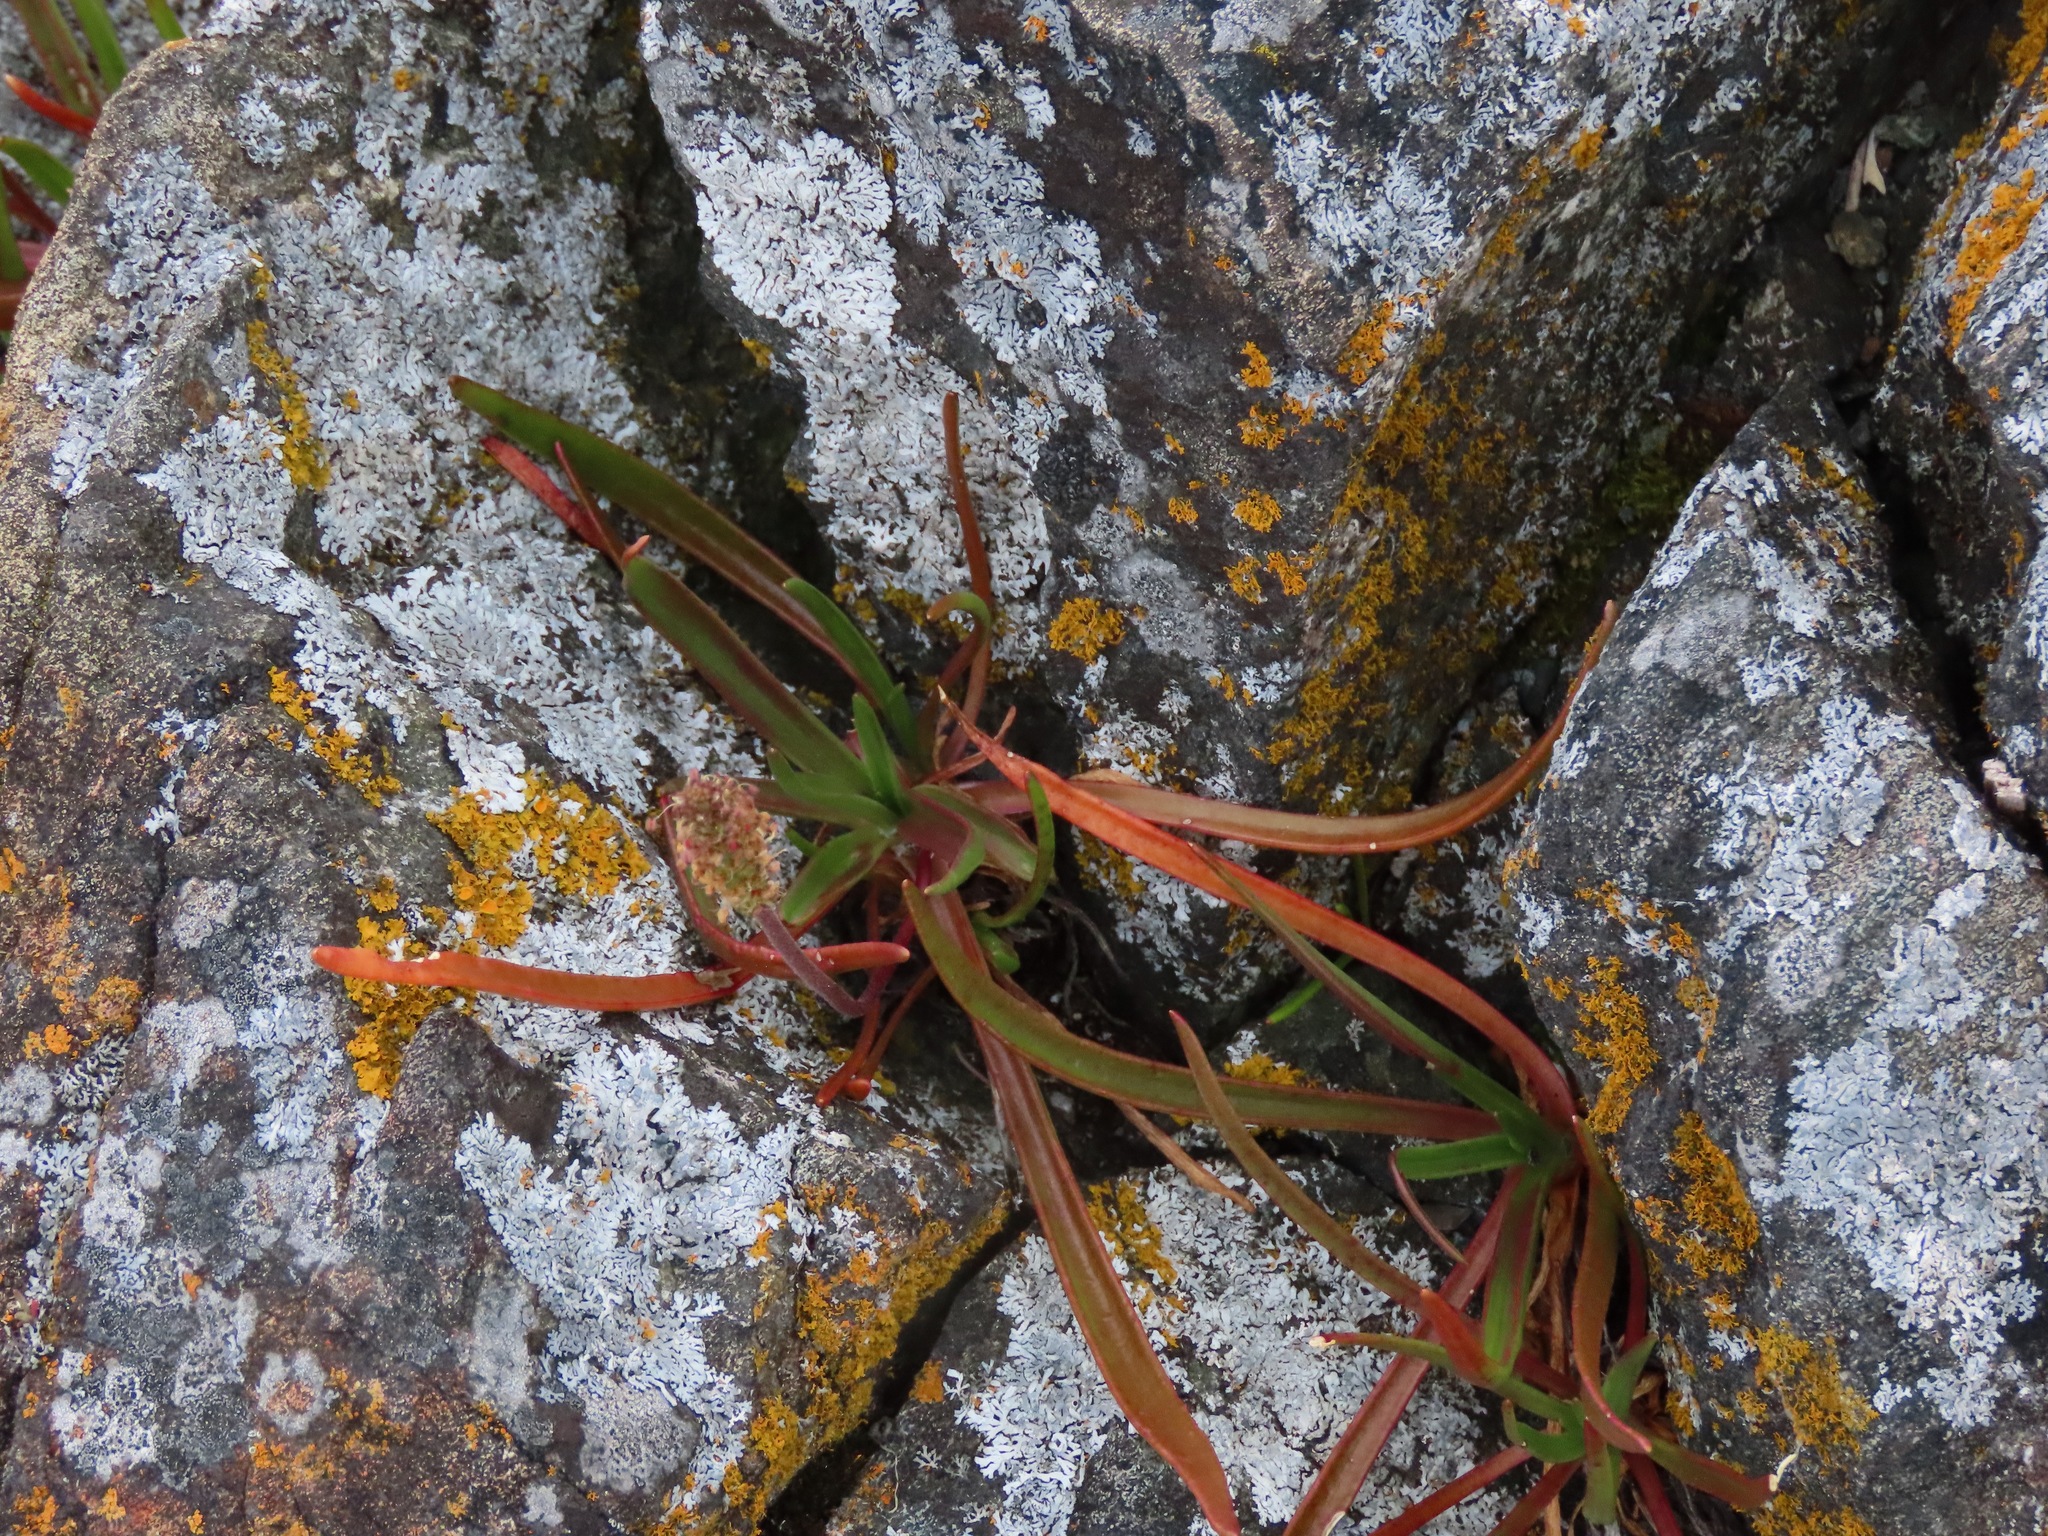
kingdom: Plantae
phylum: Tracheophyta
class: Magnoliopsida
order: Lamiales
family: Plantaginaceae
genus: Plantago
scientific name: Plantago maritima
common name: Sea plantain
